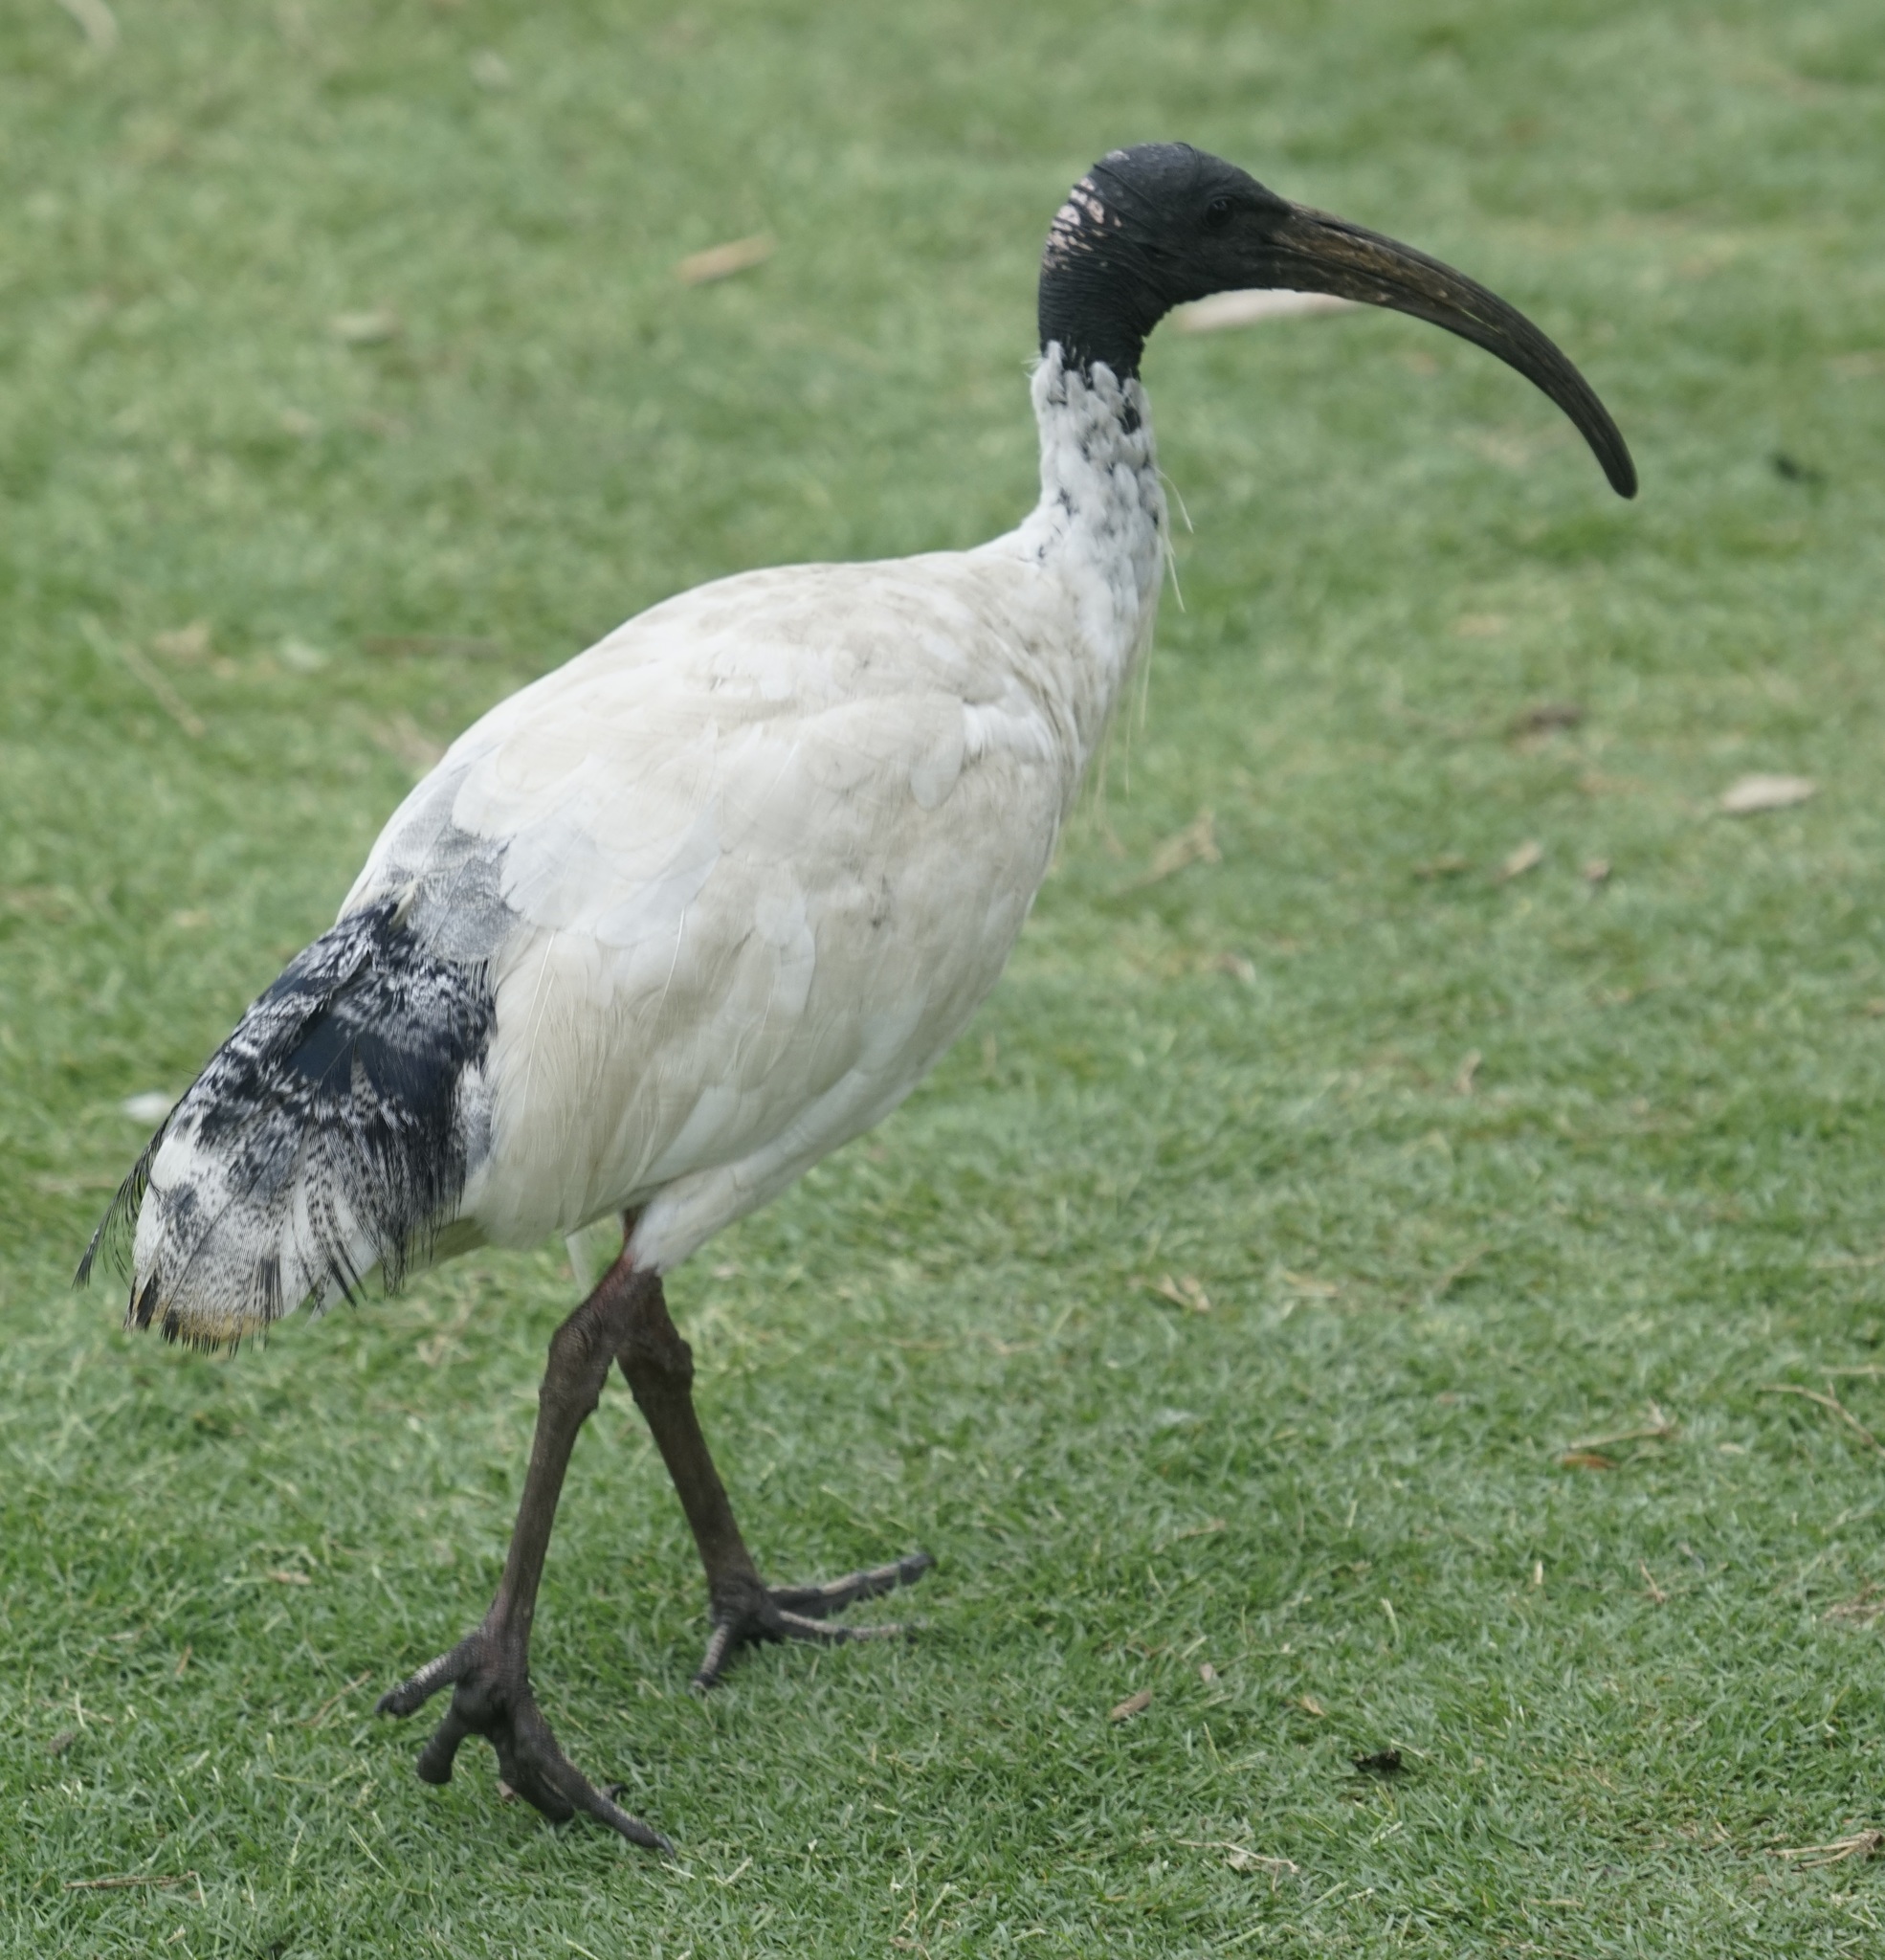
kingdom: Animalia
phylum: Chordata
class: Aves
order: Pelecaniformes
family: Threskiornithidae
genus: Threskiornis
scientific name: Threskiornis molucca
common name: Australian white ibis
